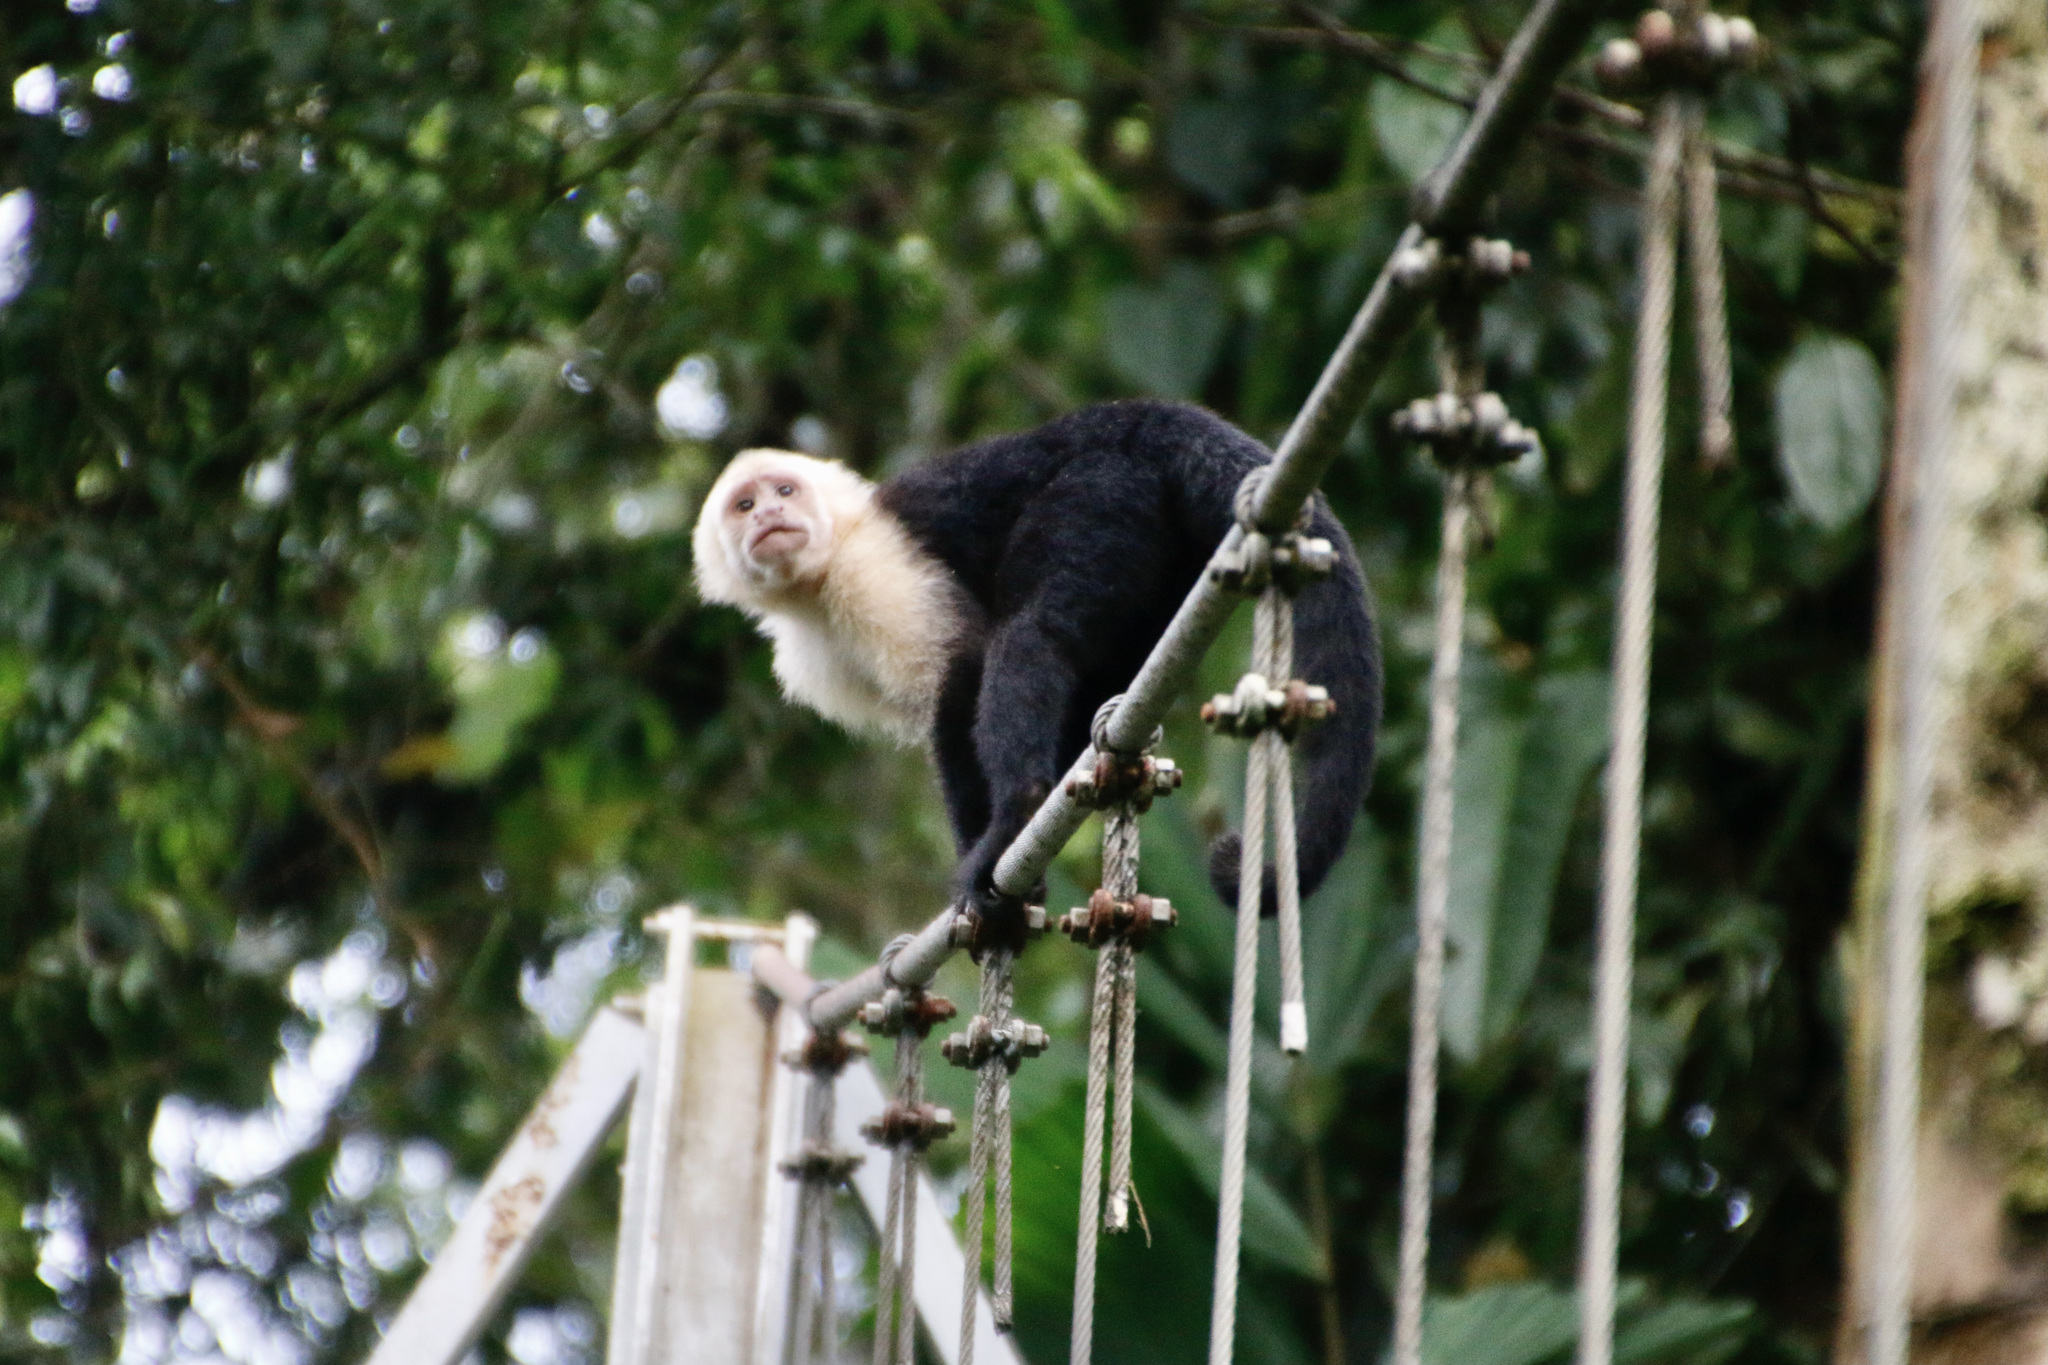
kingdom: Animalia
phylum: Chordata
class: Mammalia
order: Primates
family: Cebidae
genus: Cebus
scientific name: Cebus imitator
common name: Panamanian white-faced capuchin
